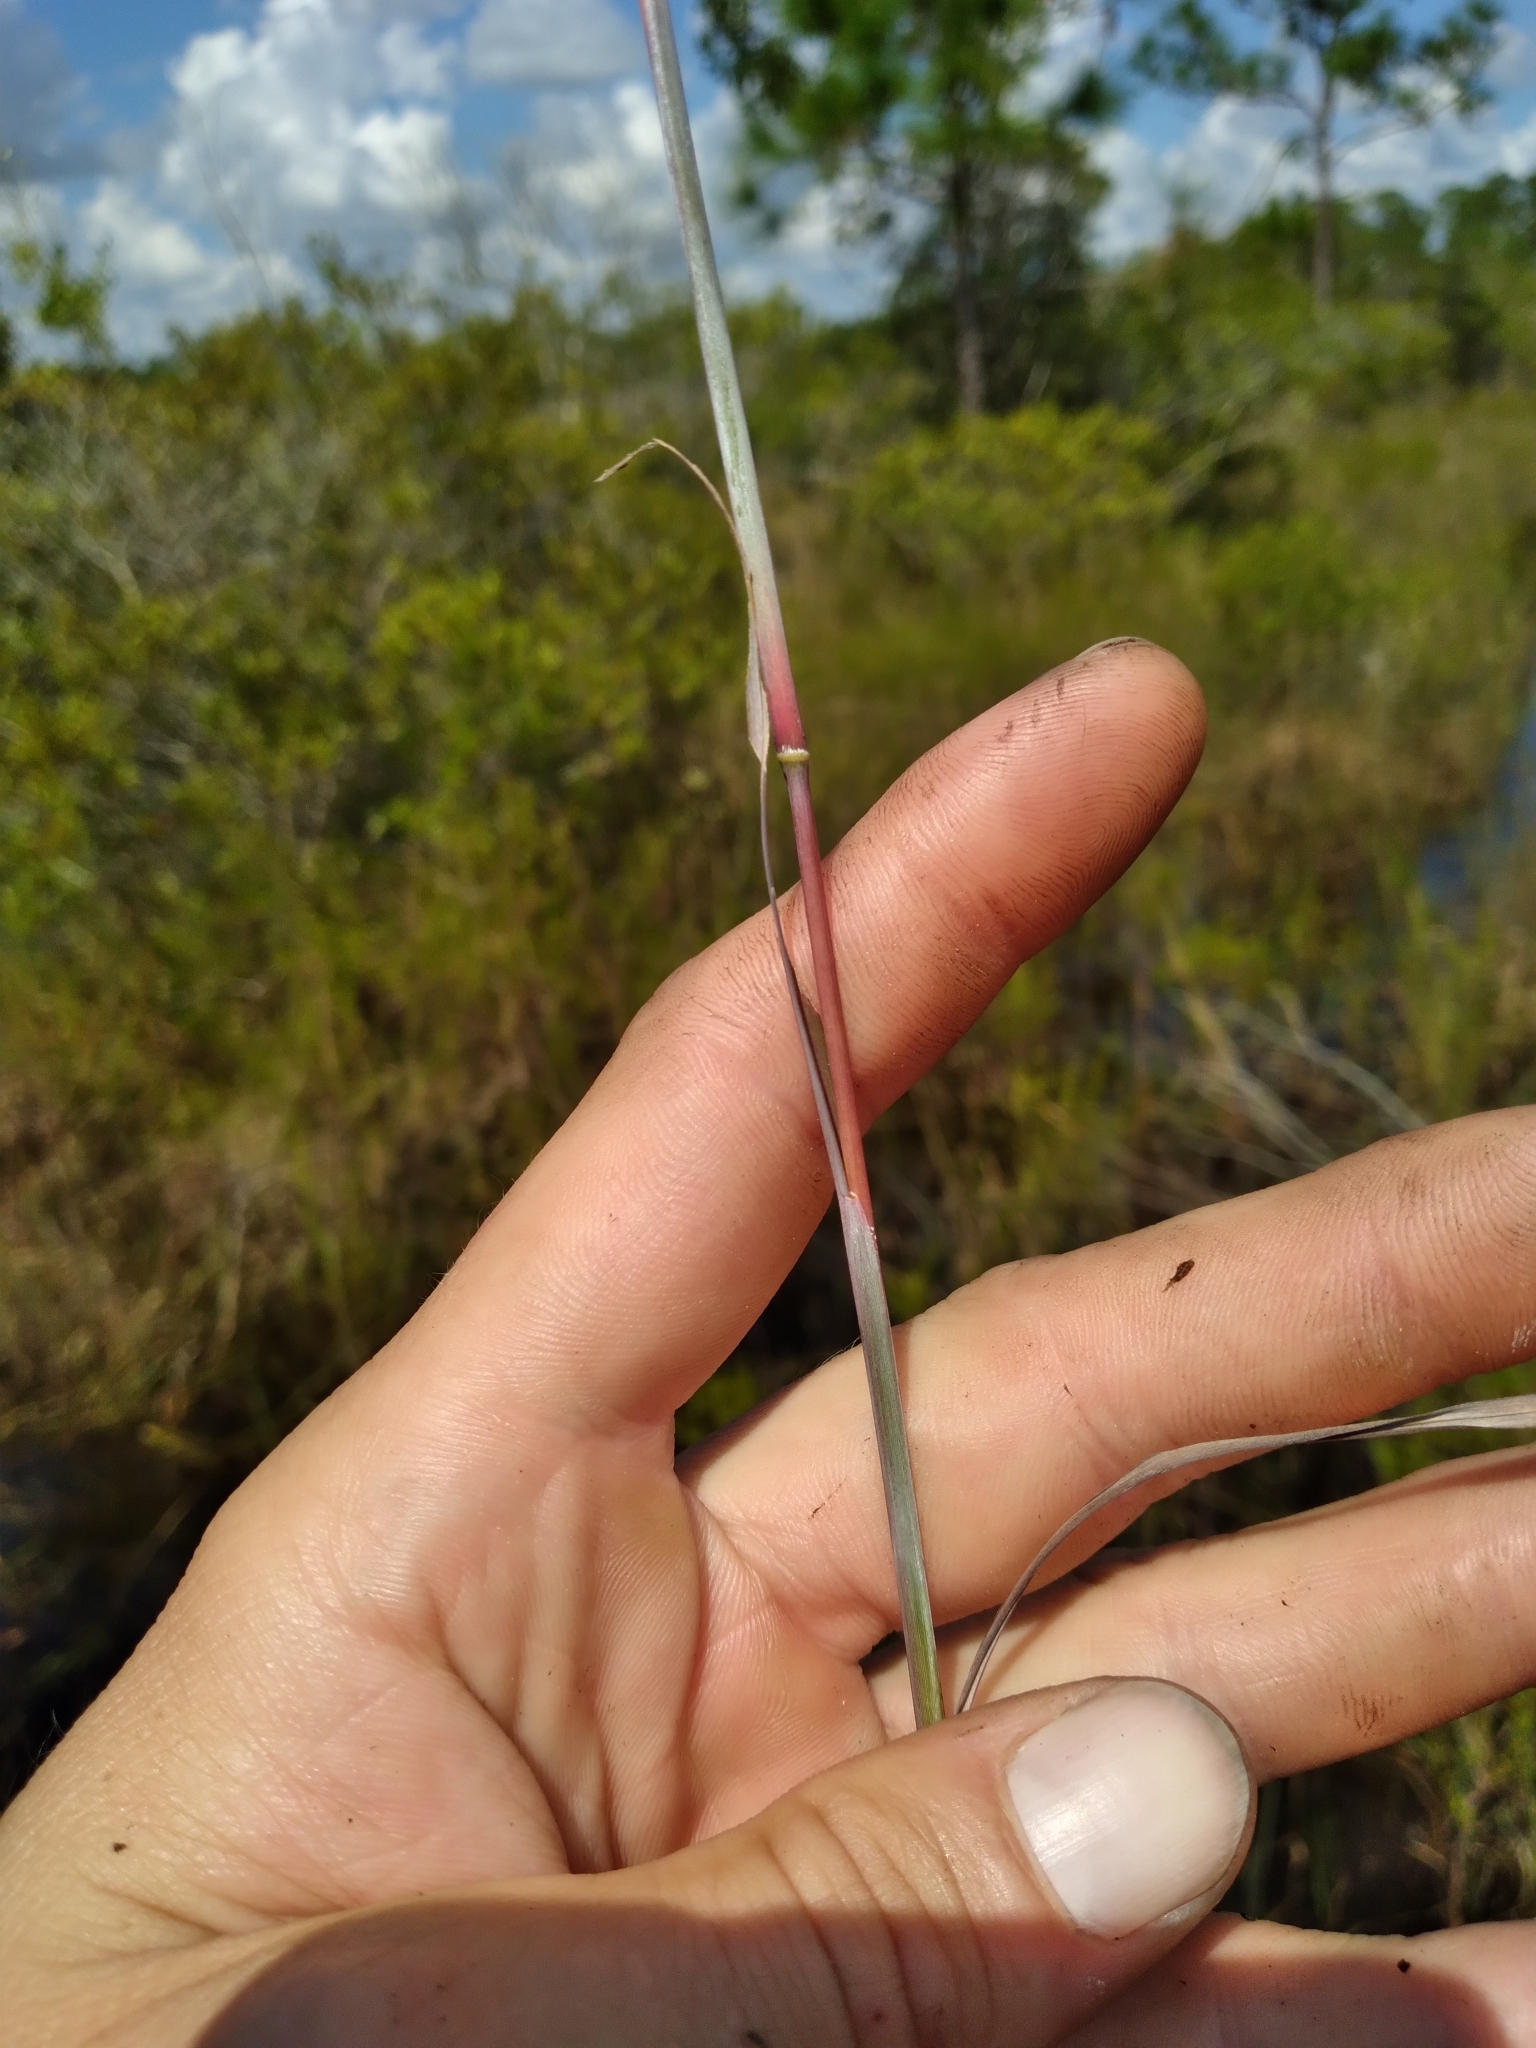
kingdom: Plantae
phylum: Tracheophyta
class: Liliopsida
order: Poales
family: Poaceae
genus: Andropogon
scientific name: Andropogon dealbatus
